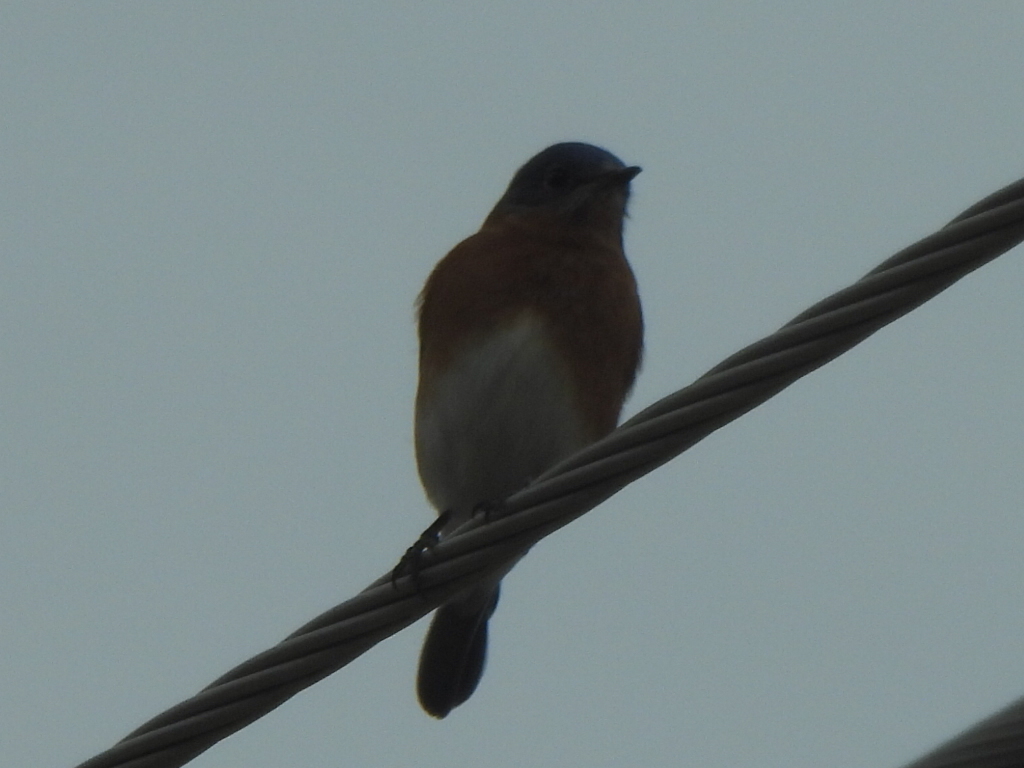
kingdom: Animalia
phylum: Chordata
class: Aves
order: Passeriformes
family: Turdidae
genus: Sialia
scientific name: Sialia sialis
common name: Eastern bluebird
